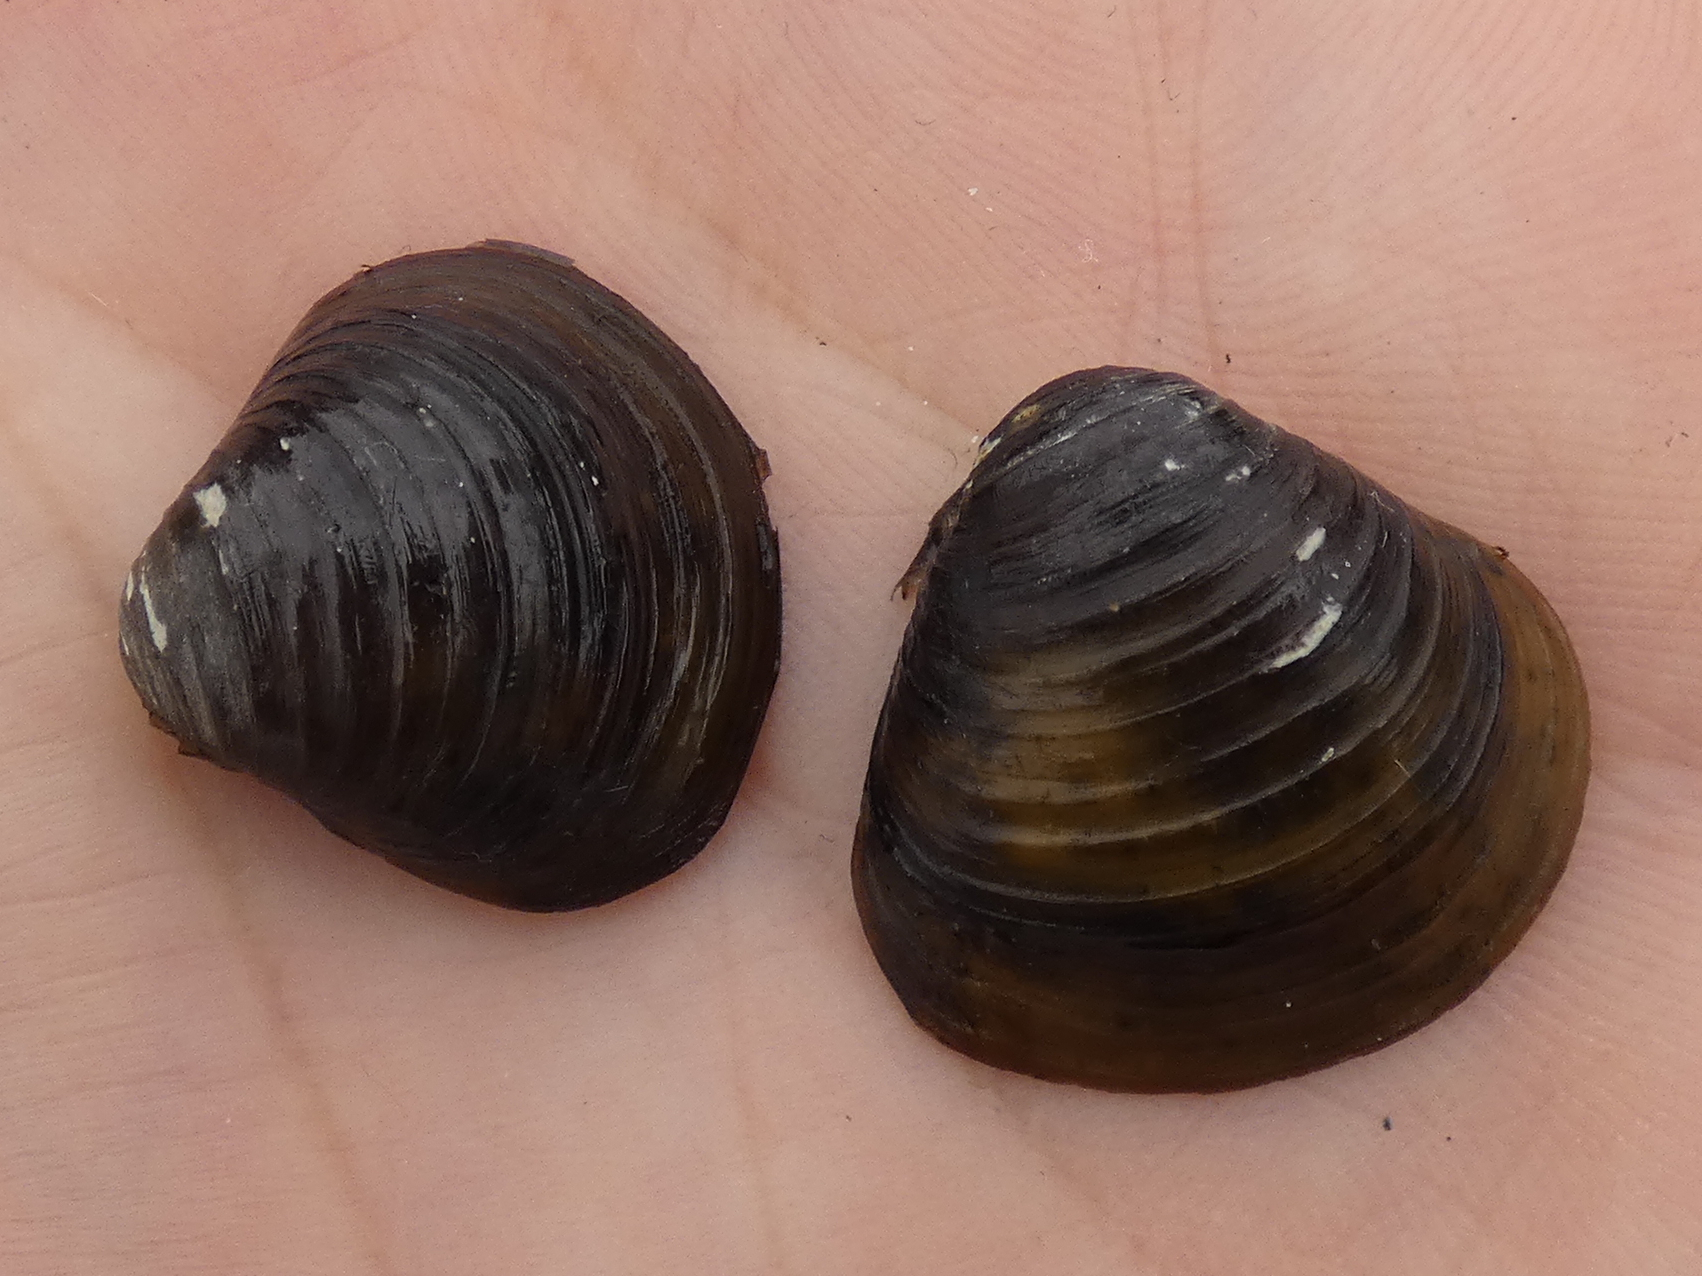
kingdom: Animalia
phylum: Mollusca
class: Bivalvia
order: Venerida
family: Cyrenidae
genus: Corbicula
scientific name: Corbicula fluminea
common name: Asian clam
